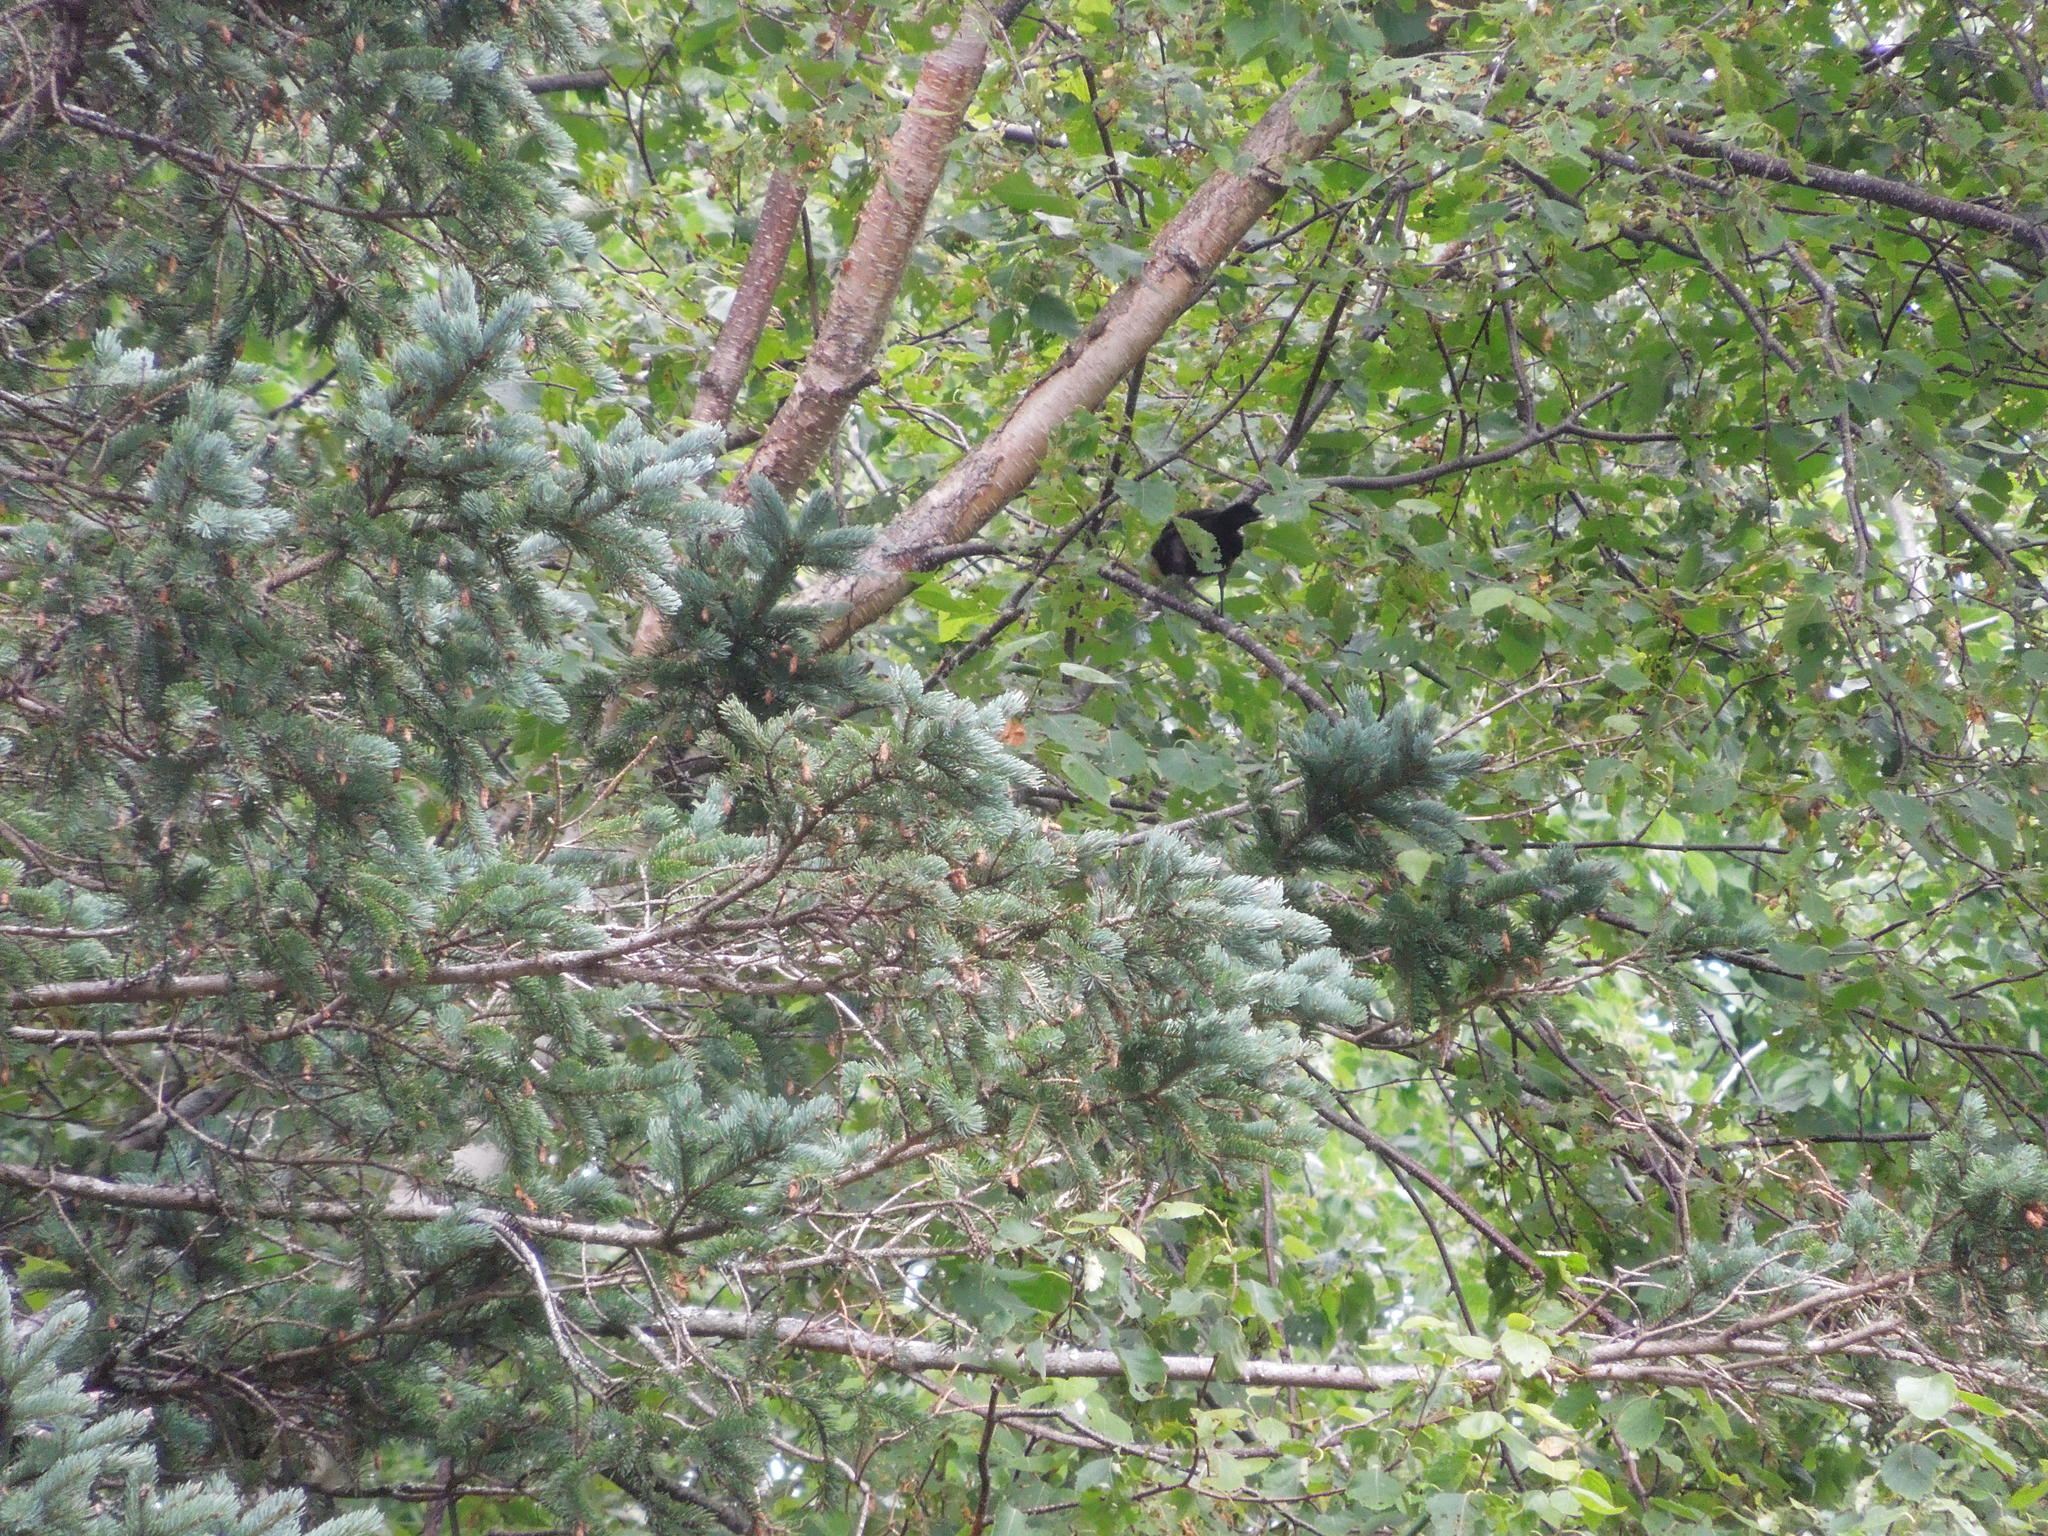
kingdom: Animalia
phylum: Chordata
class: Aves
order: Passeriformes
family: Icteridae
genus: Quiscalus
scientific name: Quiscalus quiscula
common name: Common grackle
